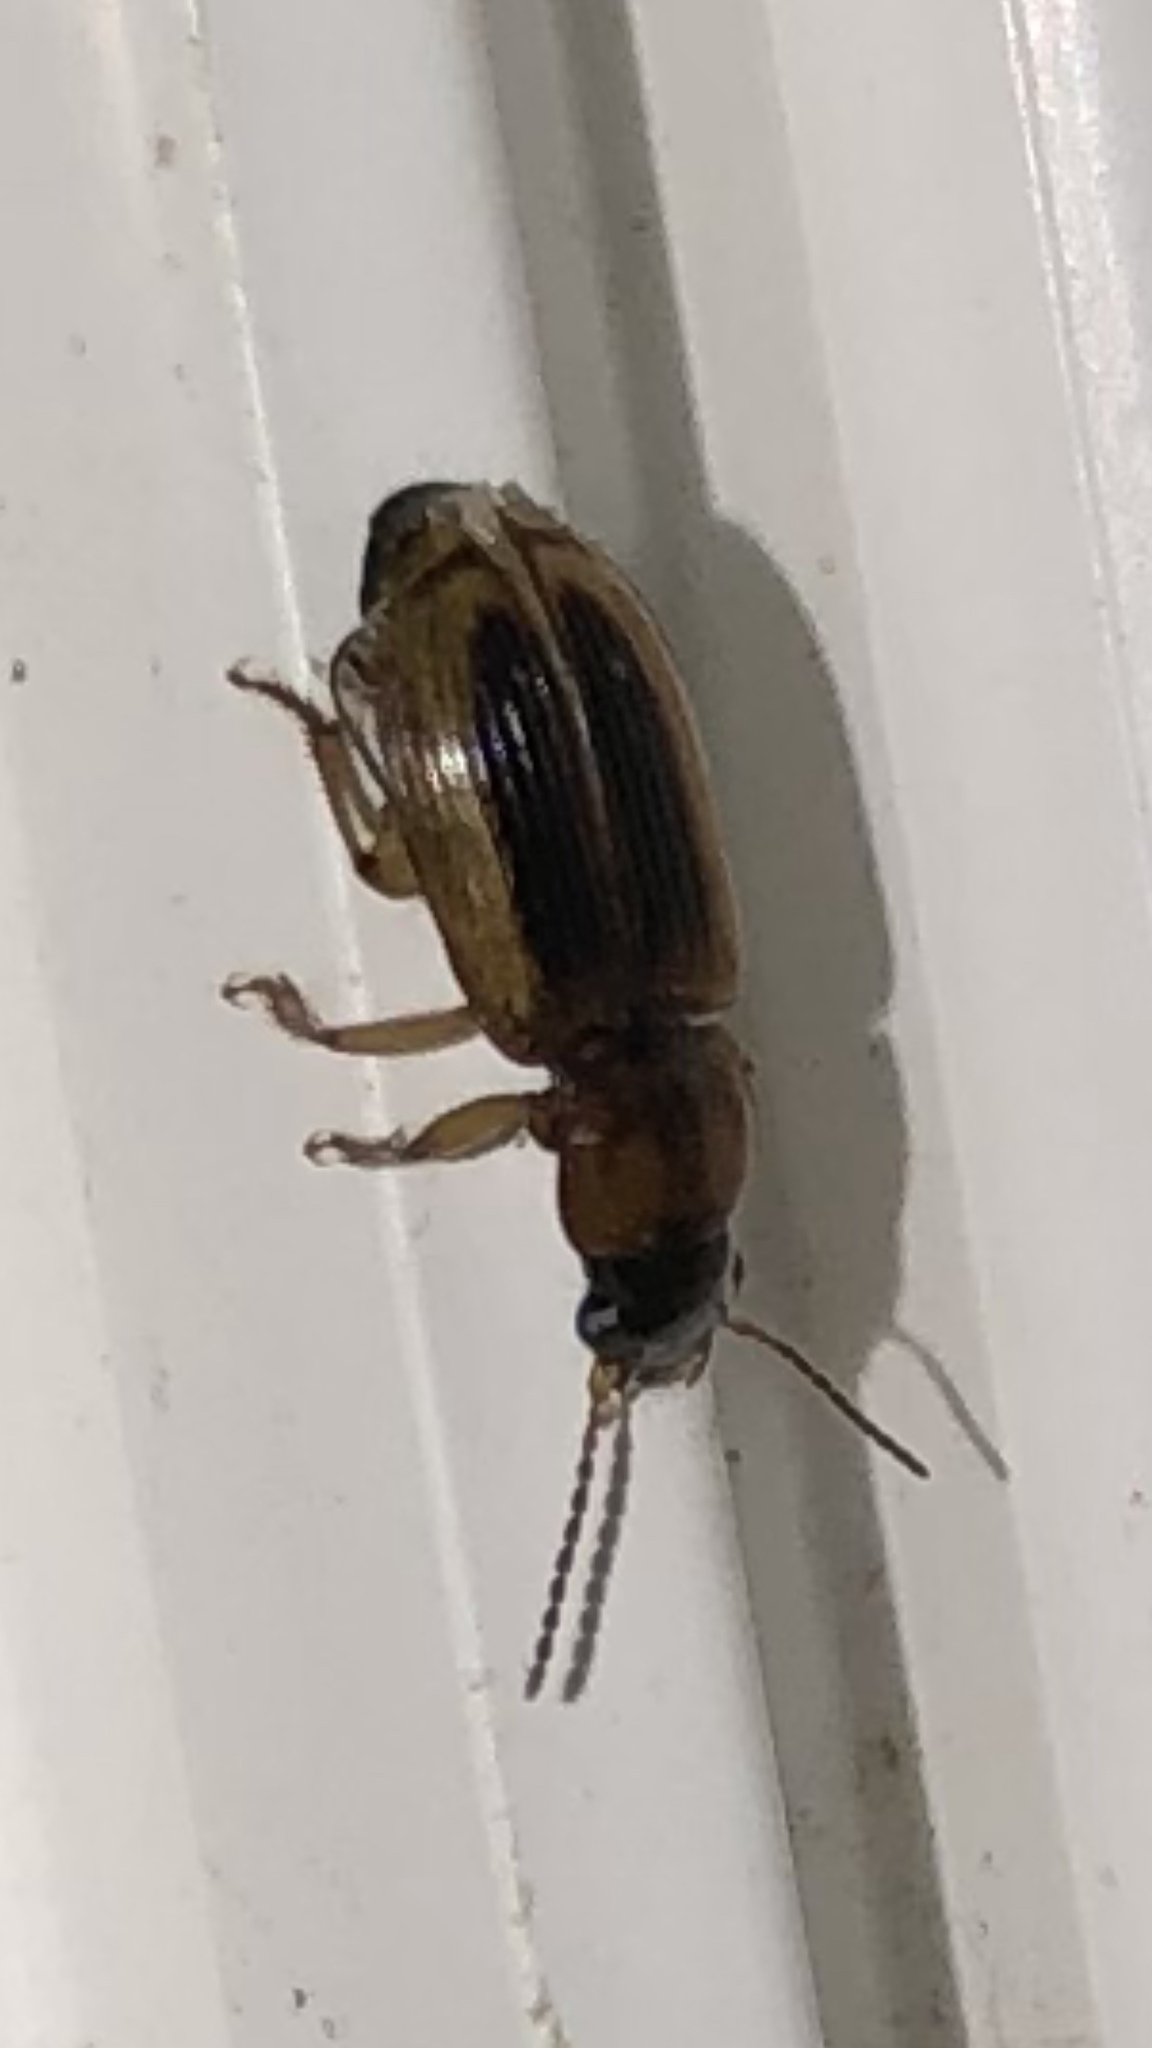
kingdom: Animalia
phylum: Arthropoda
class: Insecta
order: Coleoptera
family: Carabidae
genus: Stenolophus
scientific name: Stenolophus lecontei
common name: Leconte's seedcorn beetle
